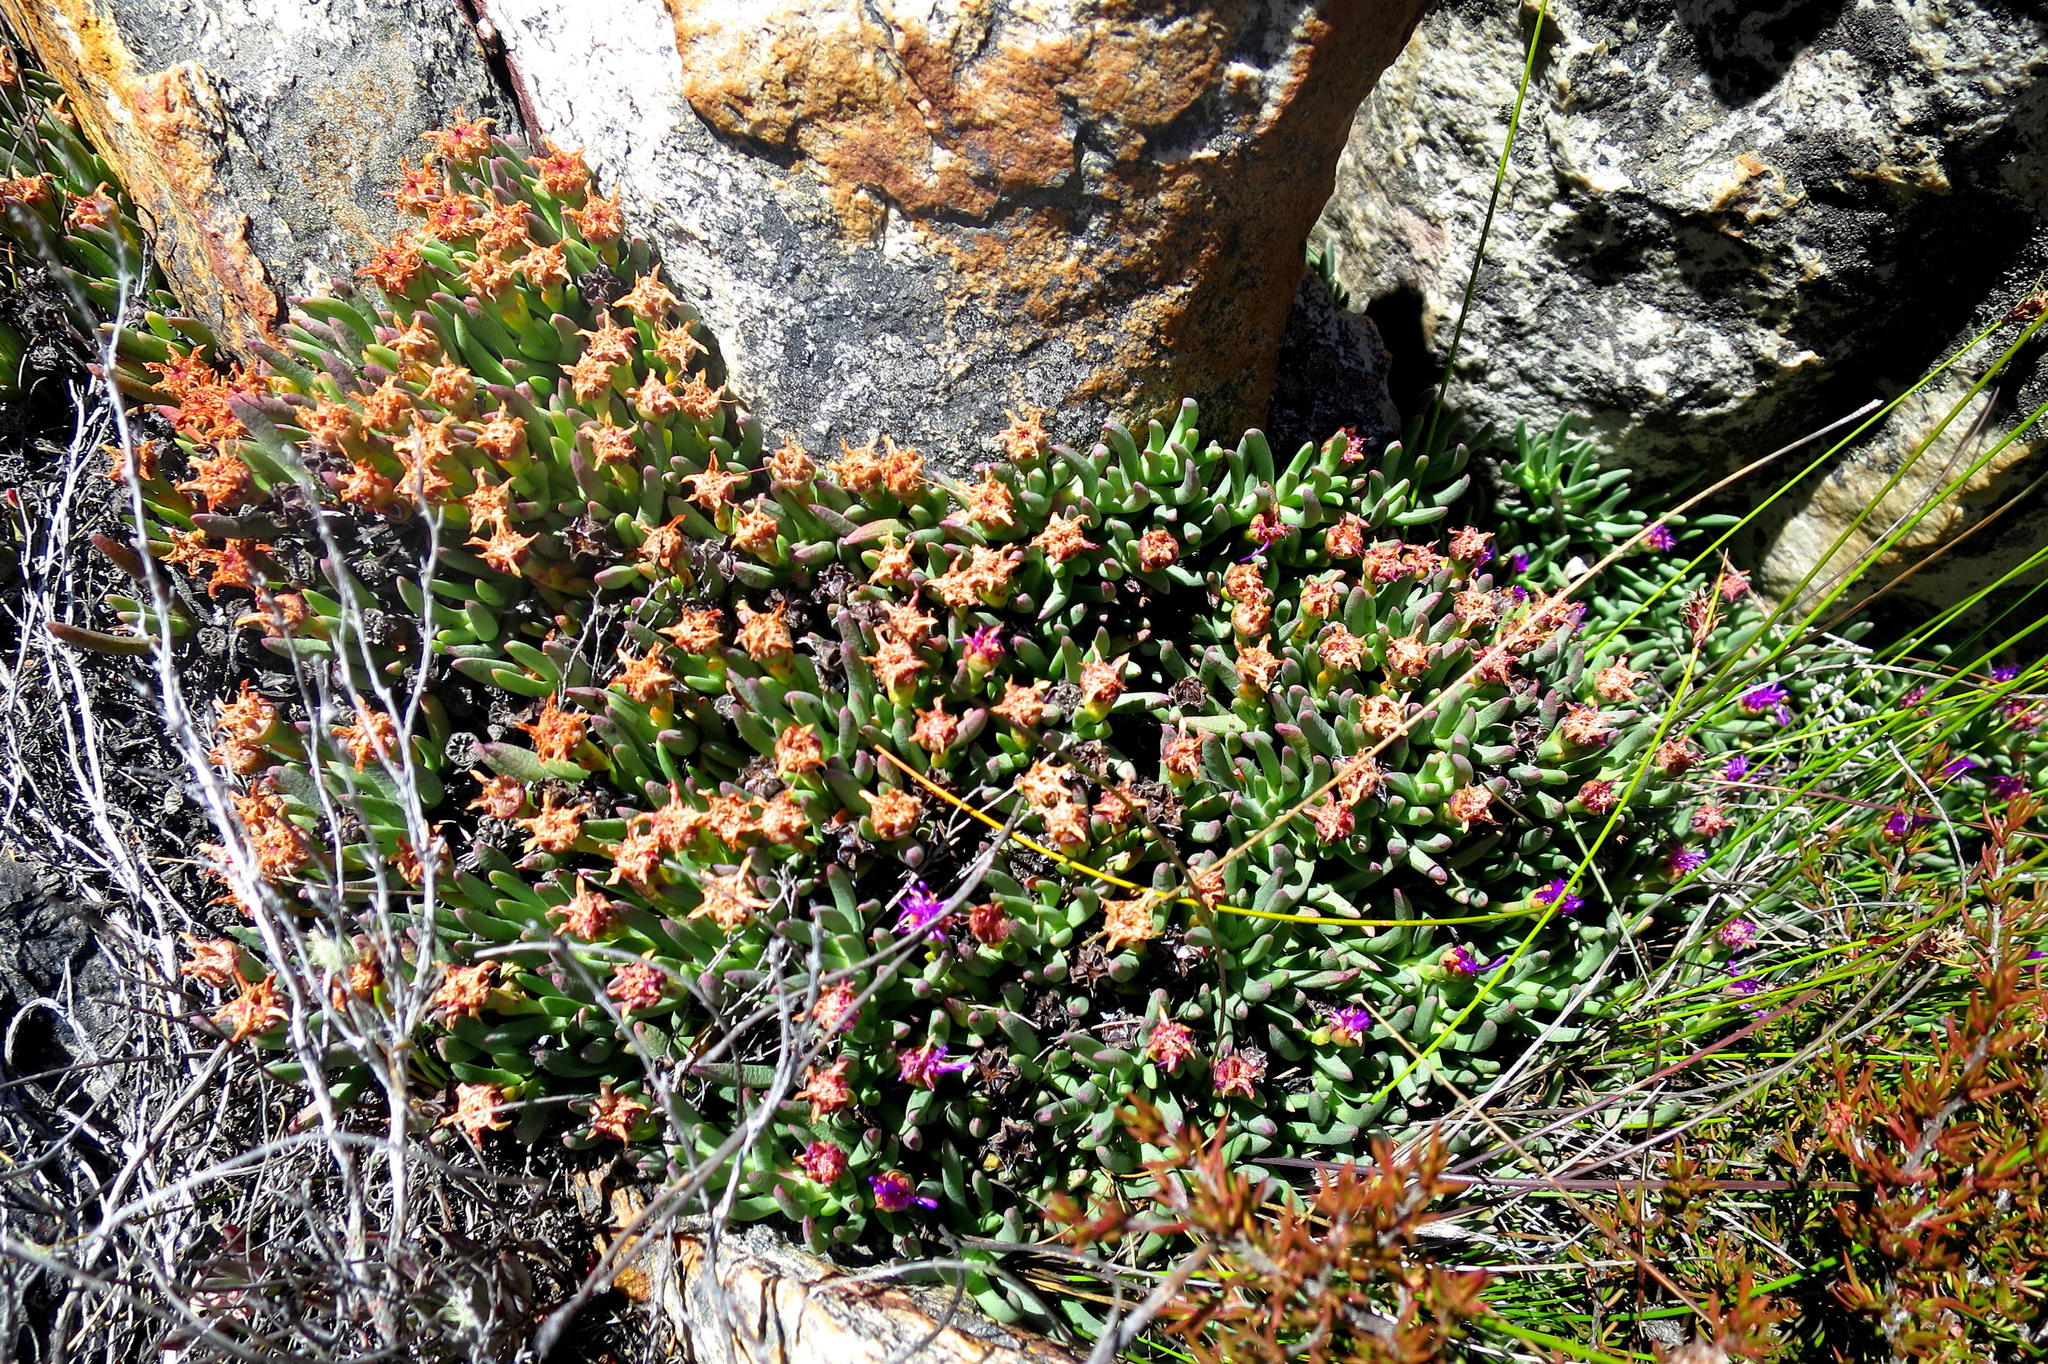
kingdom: Plantae
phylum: Tracheophyta
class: Magnoliopsida
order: Caryophyllales
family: Aizoaceae
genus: Ruschia
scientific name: Ruschia altigena
